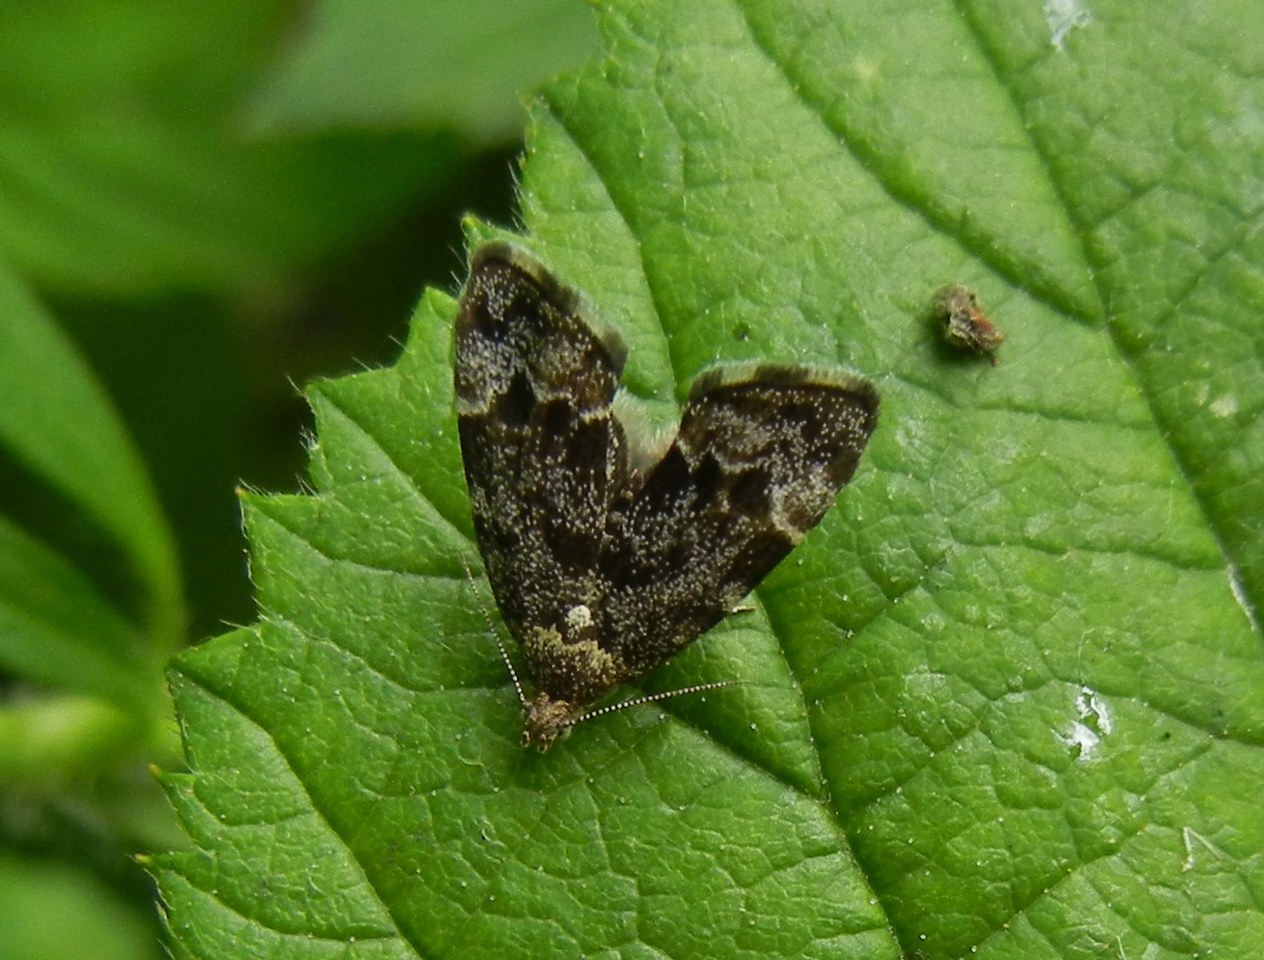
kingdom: Animalia
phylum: Arthropoda
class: Insecta
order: Lepidoptera
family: Choreutidae
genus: Anthophila
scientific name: Anthophila fabriciana
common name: Nettle-tap
